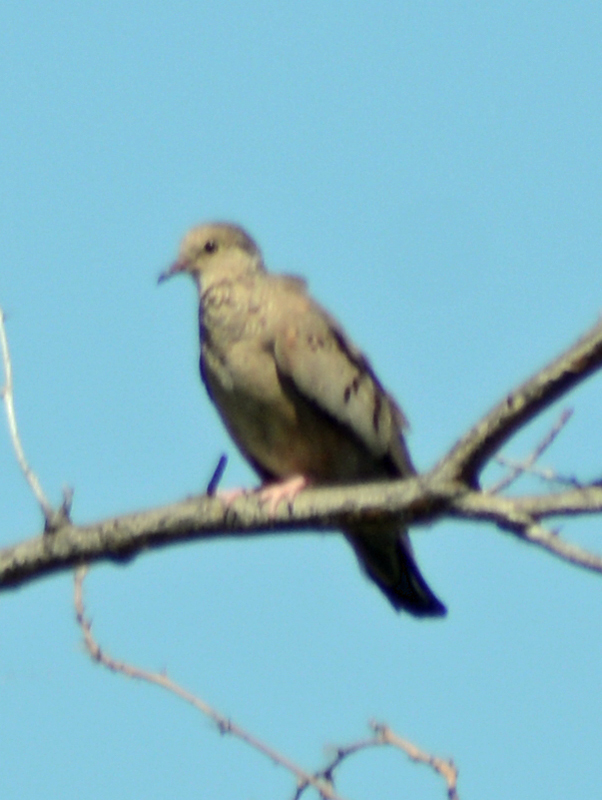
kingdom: Animalia
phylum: Chordata
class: Aves
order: Columbiformes
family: Columbidae
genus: Columbina
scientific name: Columbina passerina
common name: Common ground-dove
